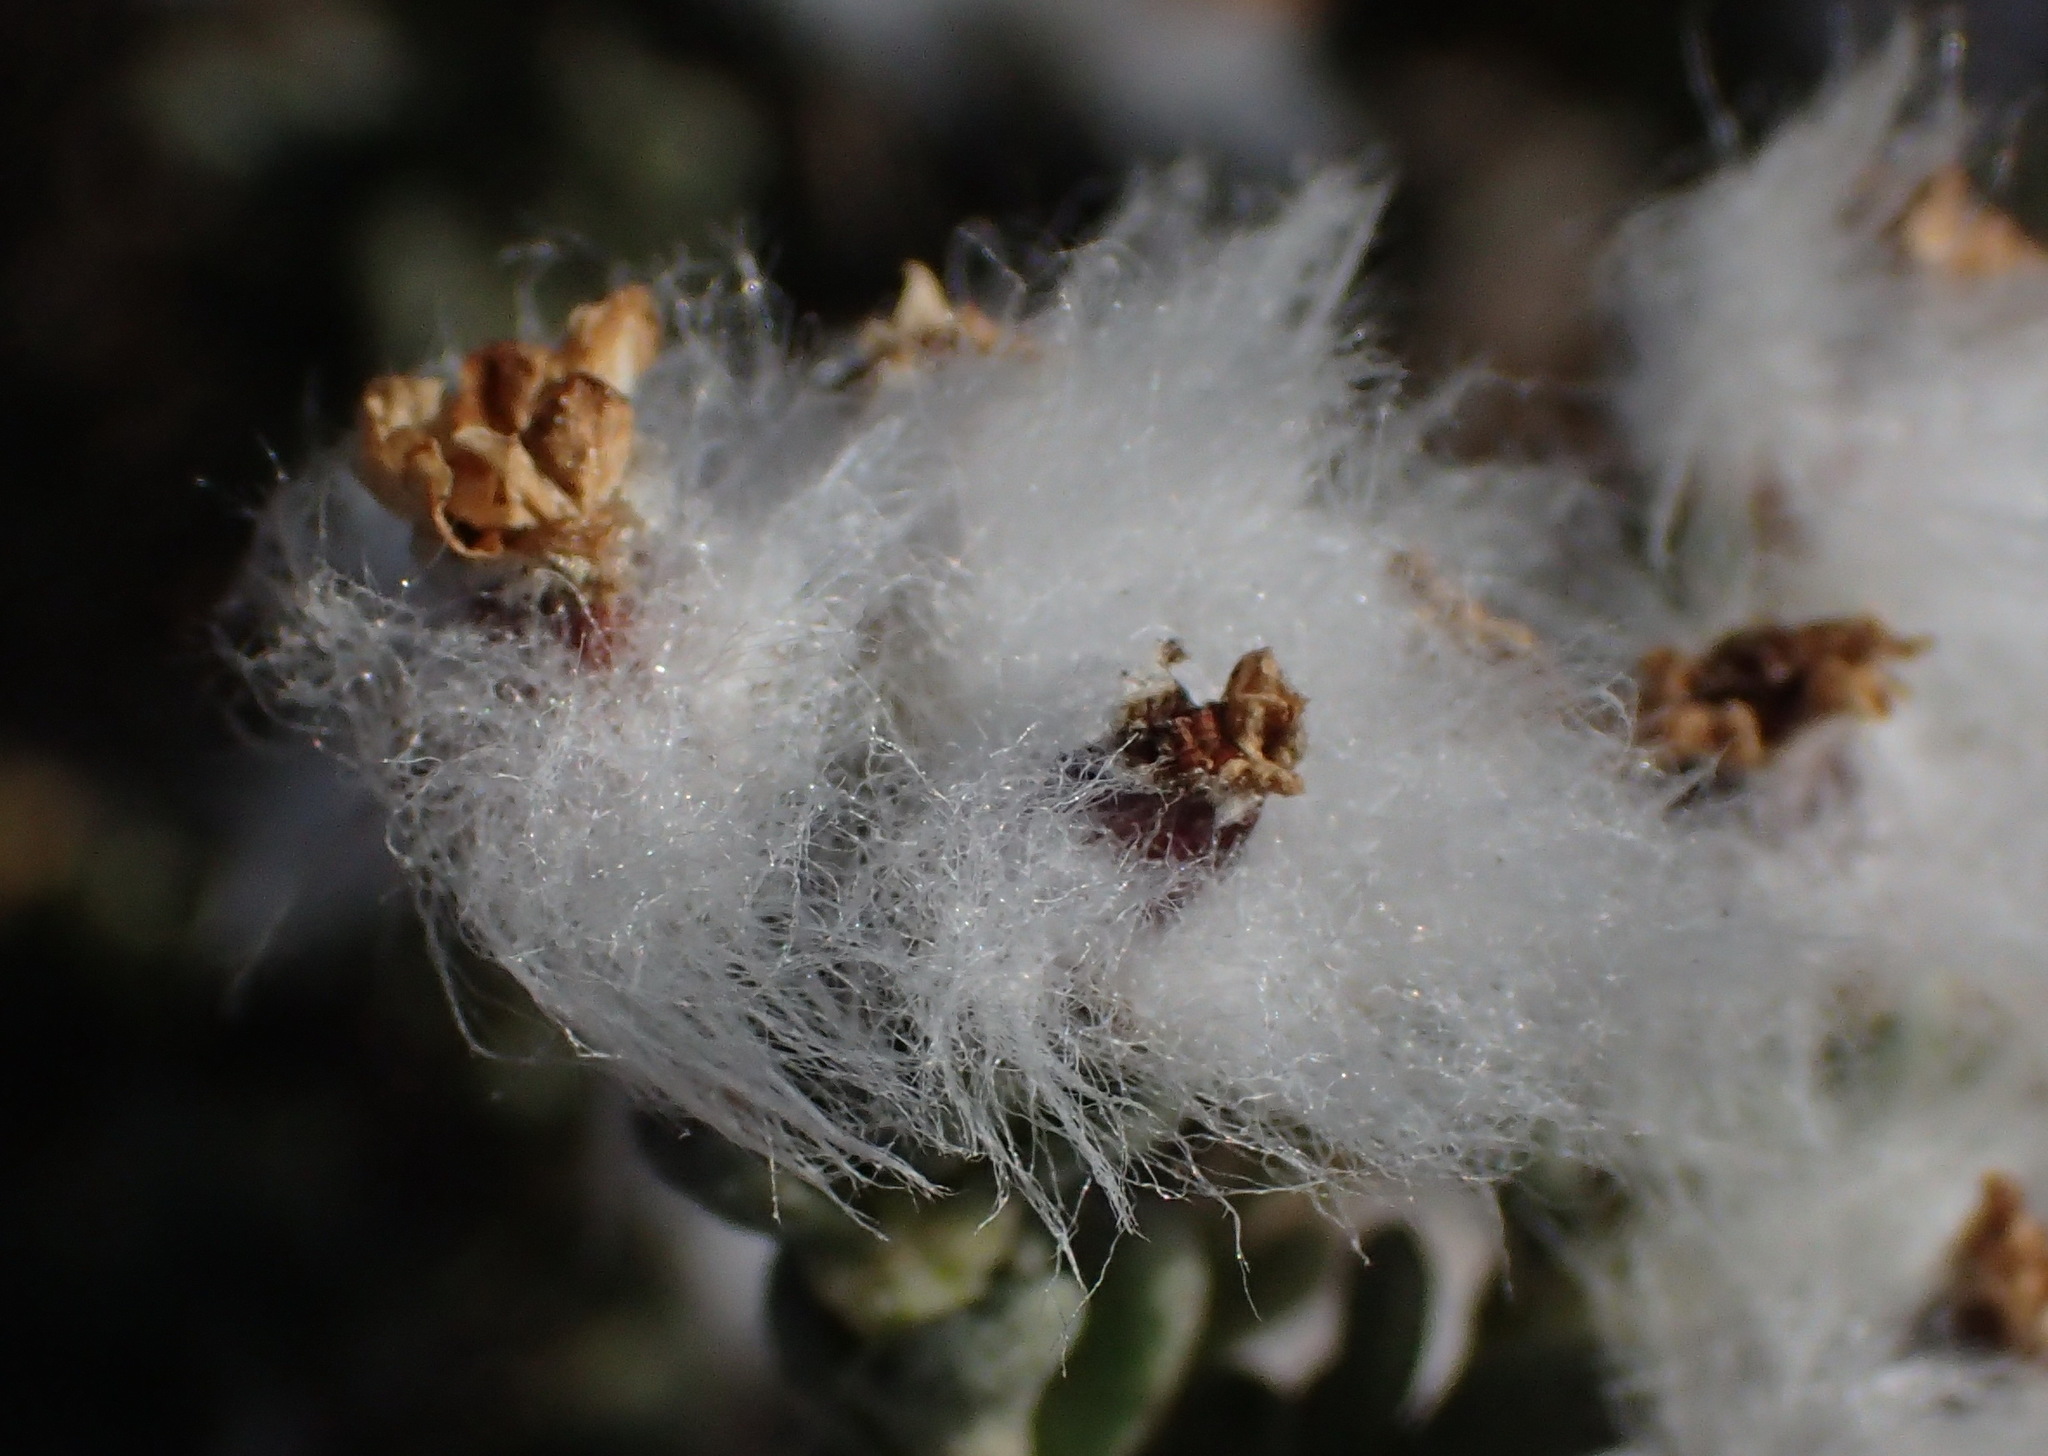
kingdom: Plantae
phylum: Tracheophyta
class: Magnoliopsida
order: Asterales
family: Asteraceae
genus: Eriocephalus
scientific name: Eriocephalus africanus
